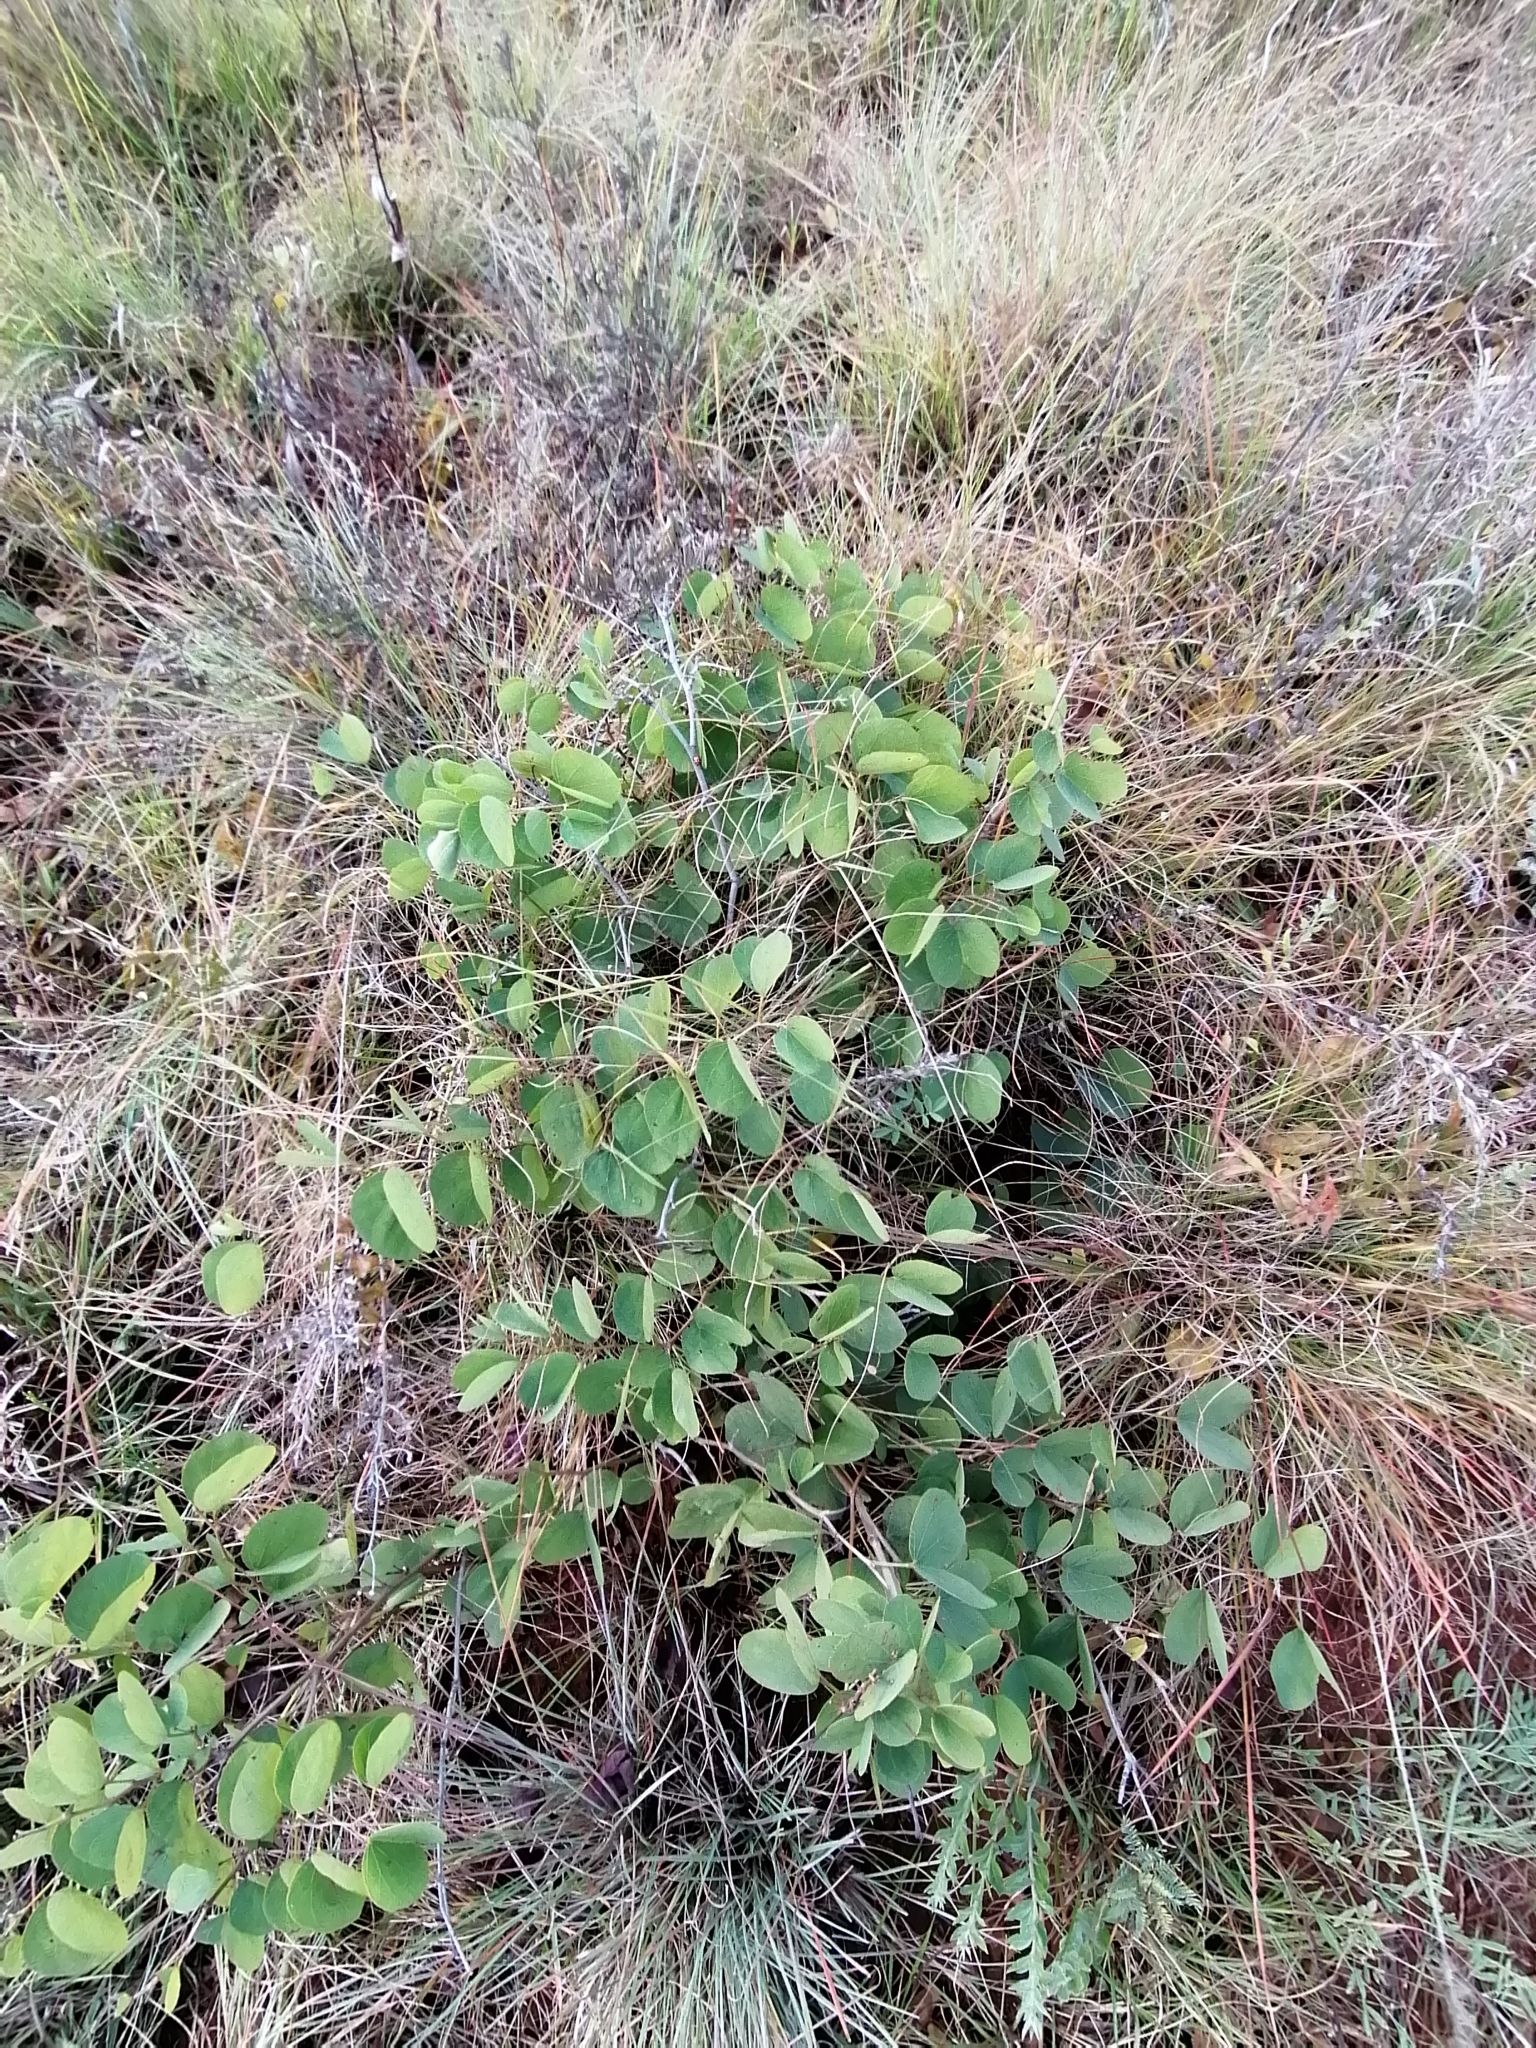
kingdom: Plantae
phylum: Tracheophyta
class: Magnoliopsida
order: Fabales
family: Fabaceae
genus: Tylosema
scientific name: Tylosema esculentum
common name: Marama-bean
